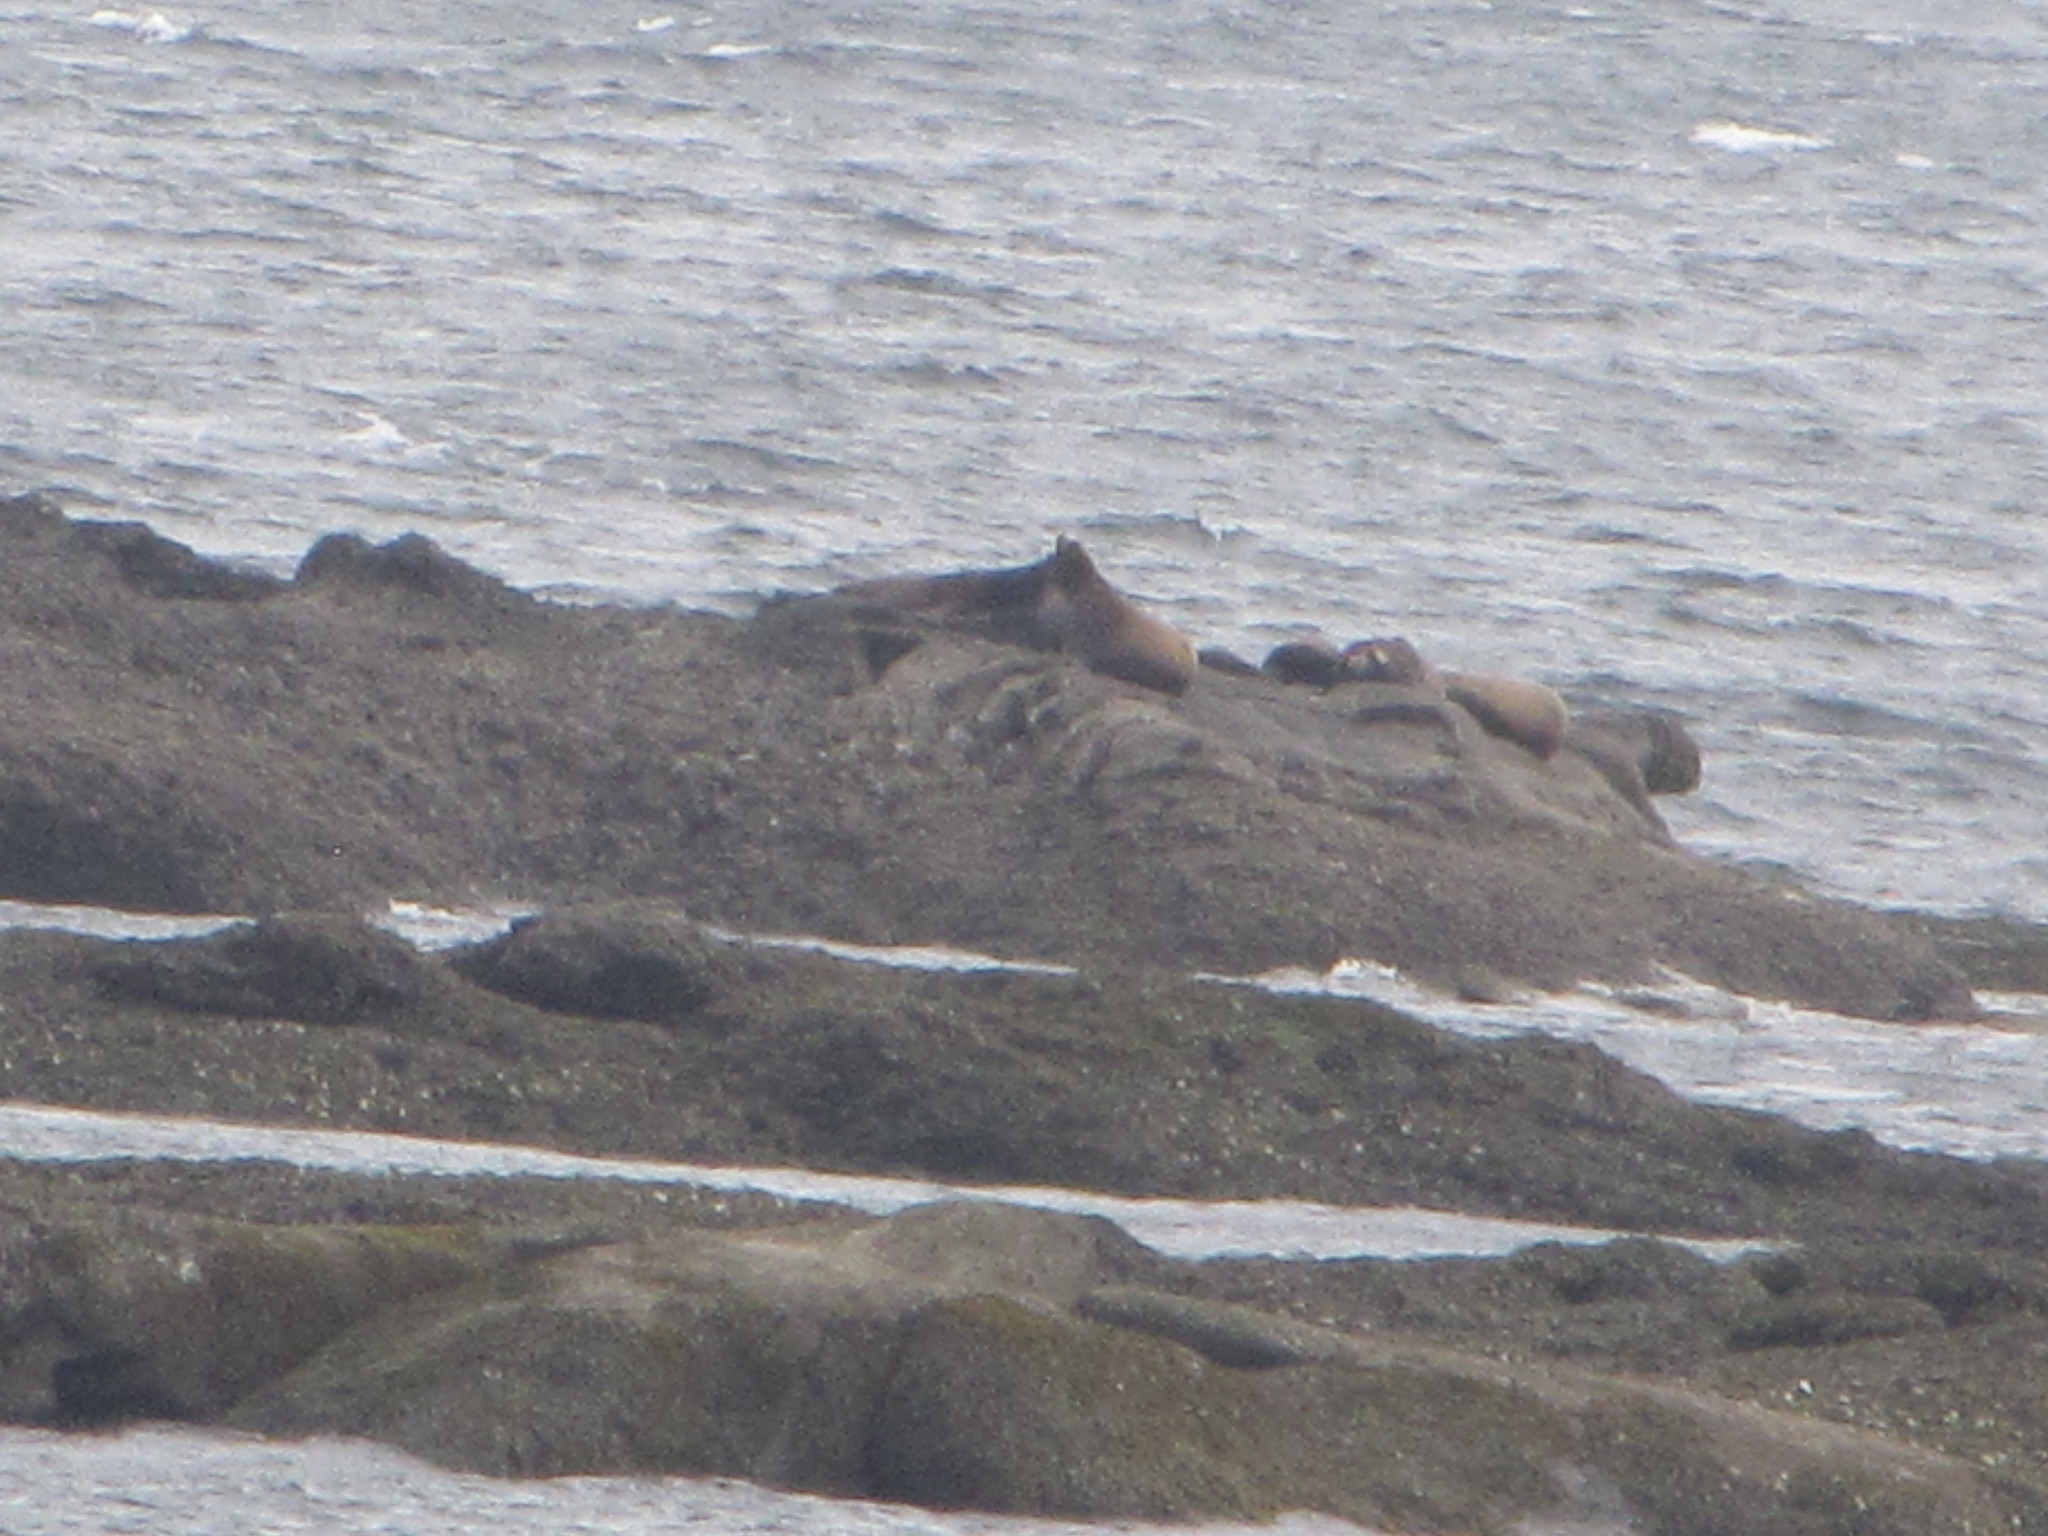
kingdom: Animalia
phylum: Chordata
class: Mammalia
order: Carnivora
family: Otariidae
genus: Zalophus
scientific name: Zalophus californianus
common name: California sea lion
